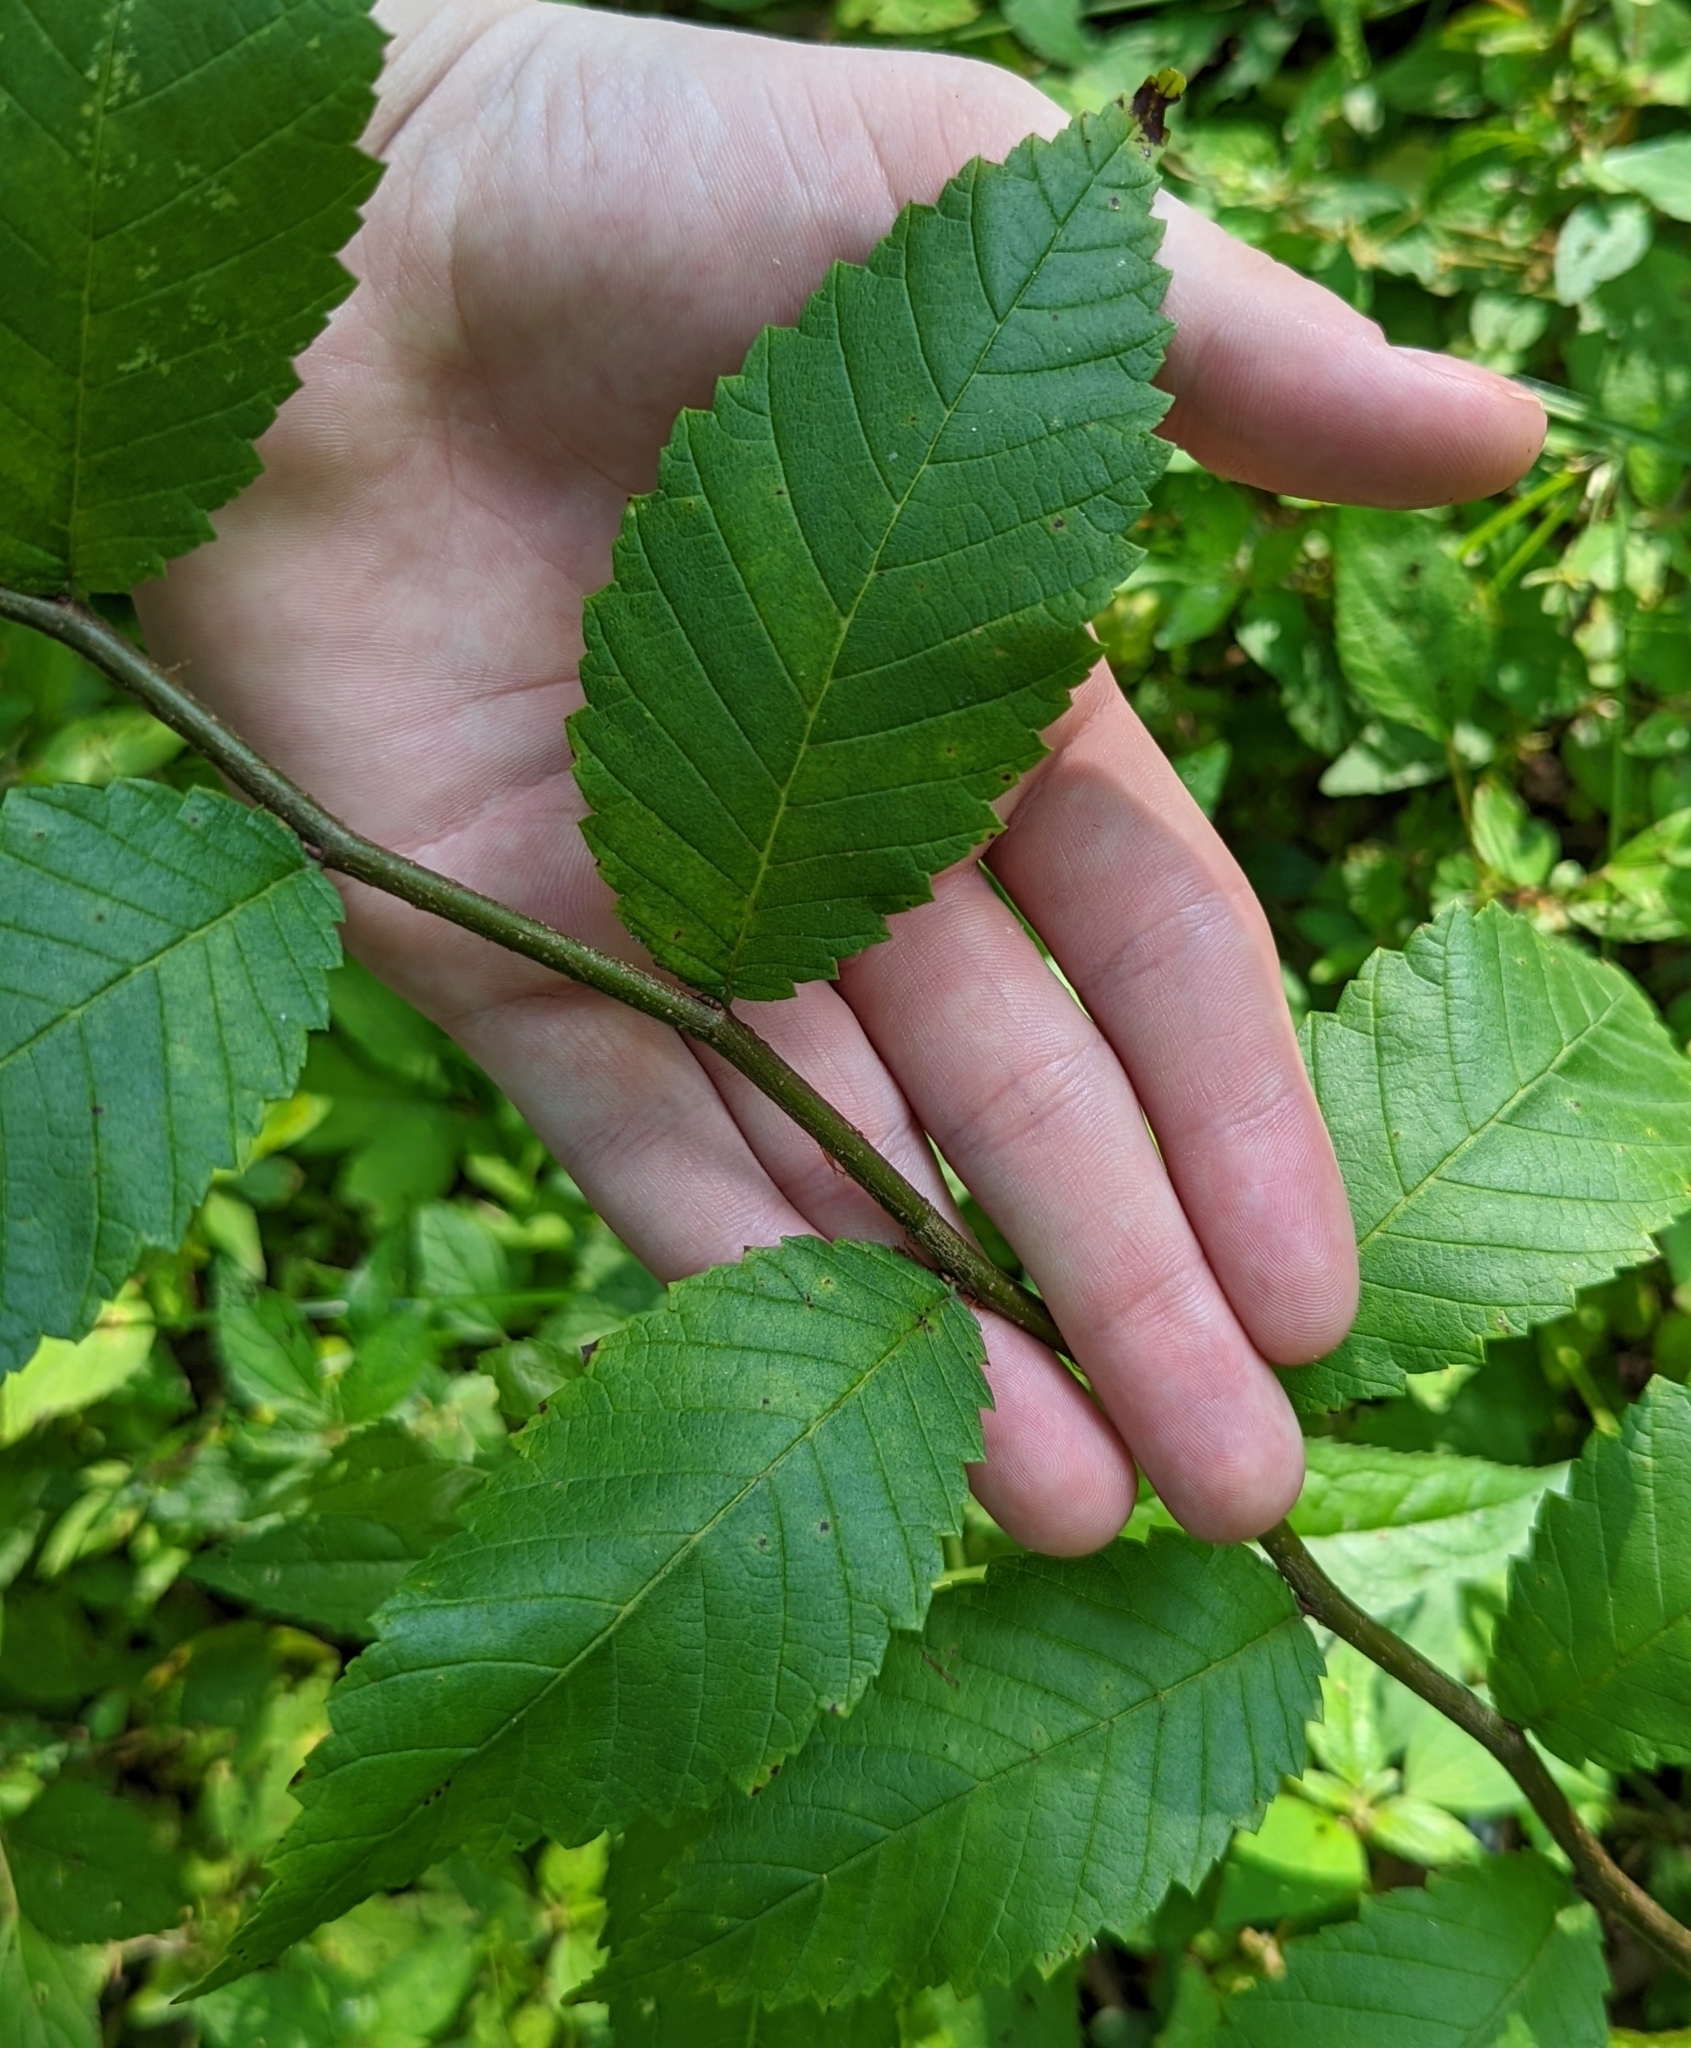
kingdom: Plantae
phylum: Tracheophyta
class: Magnoliopsida
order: Rosales
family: Ulmaceae
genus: Ulmus
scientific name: Ulmus rubra
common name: Slippery elm
